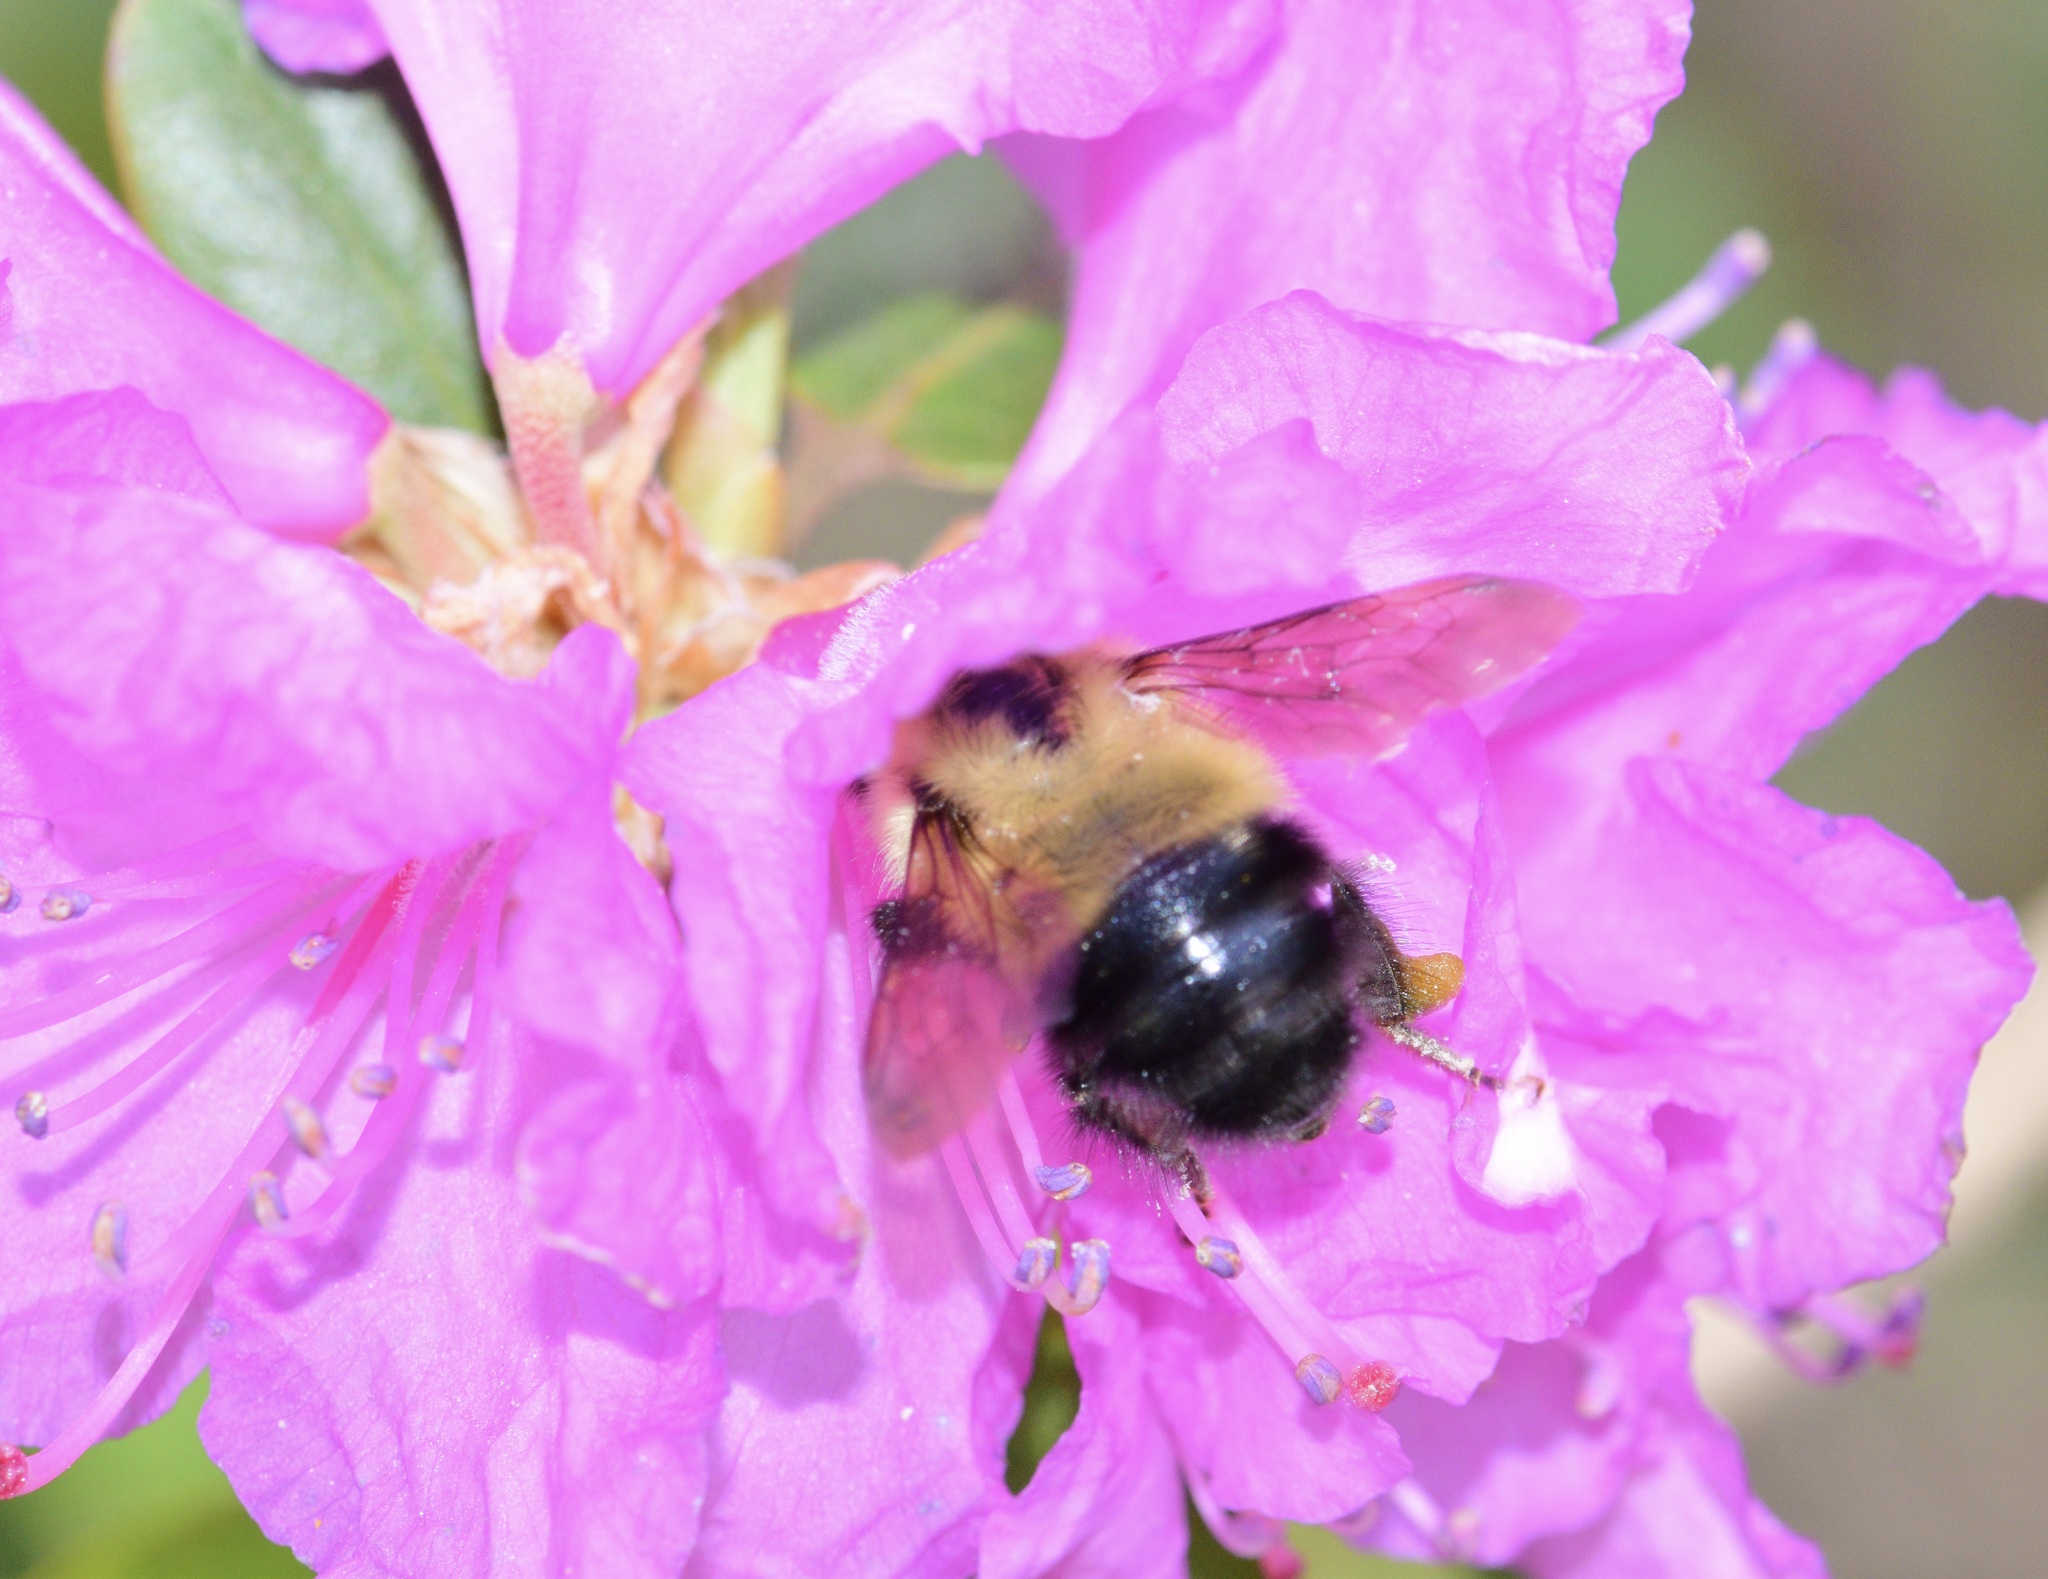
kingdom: Animalia
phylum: Arthropoda
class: Insecta
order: Hymenoptera
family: Apidae
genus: Pyrobombus
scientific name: Pyrobombus
